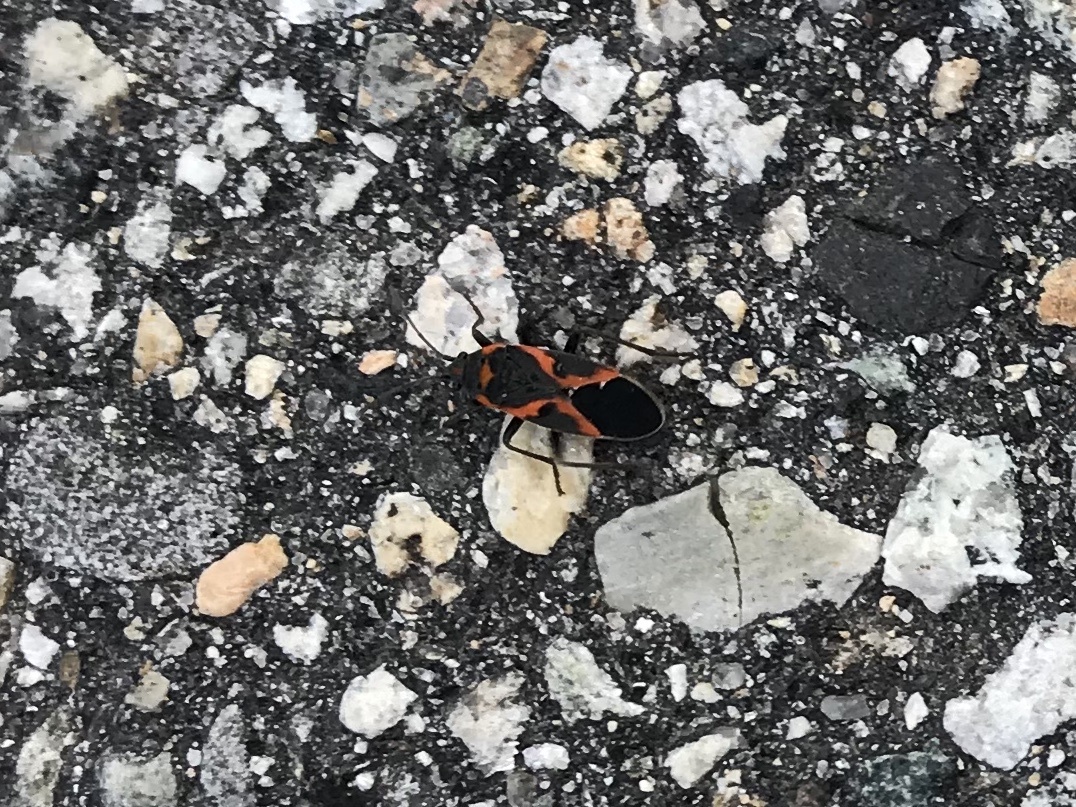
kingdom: Animalia
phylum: Arthropoda
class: Insecta
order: Hemiptera
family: Lygaeidae
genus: Lygaeus
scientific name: Lygaeus kalmii
